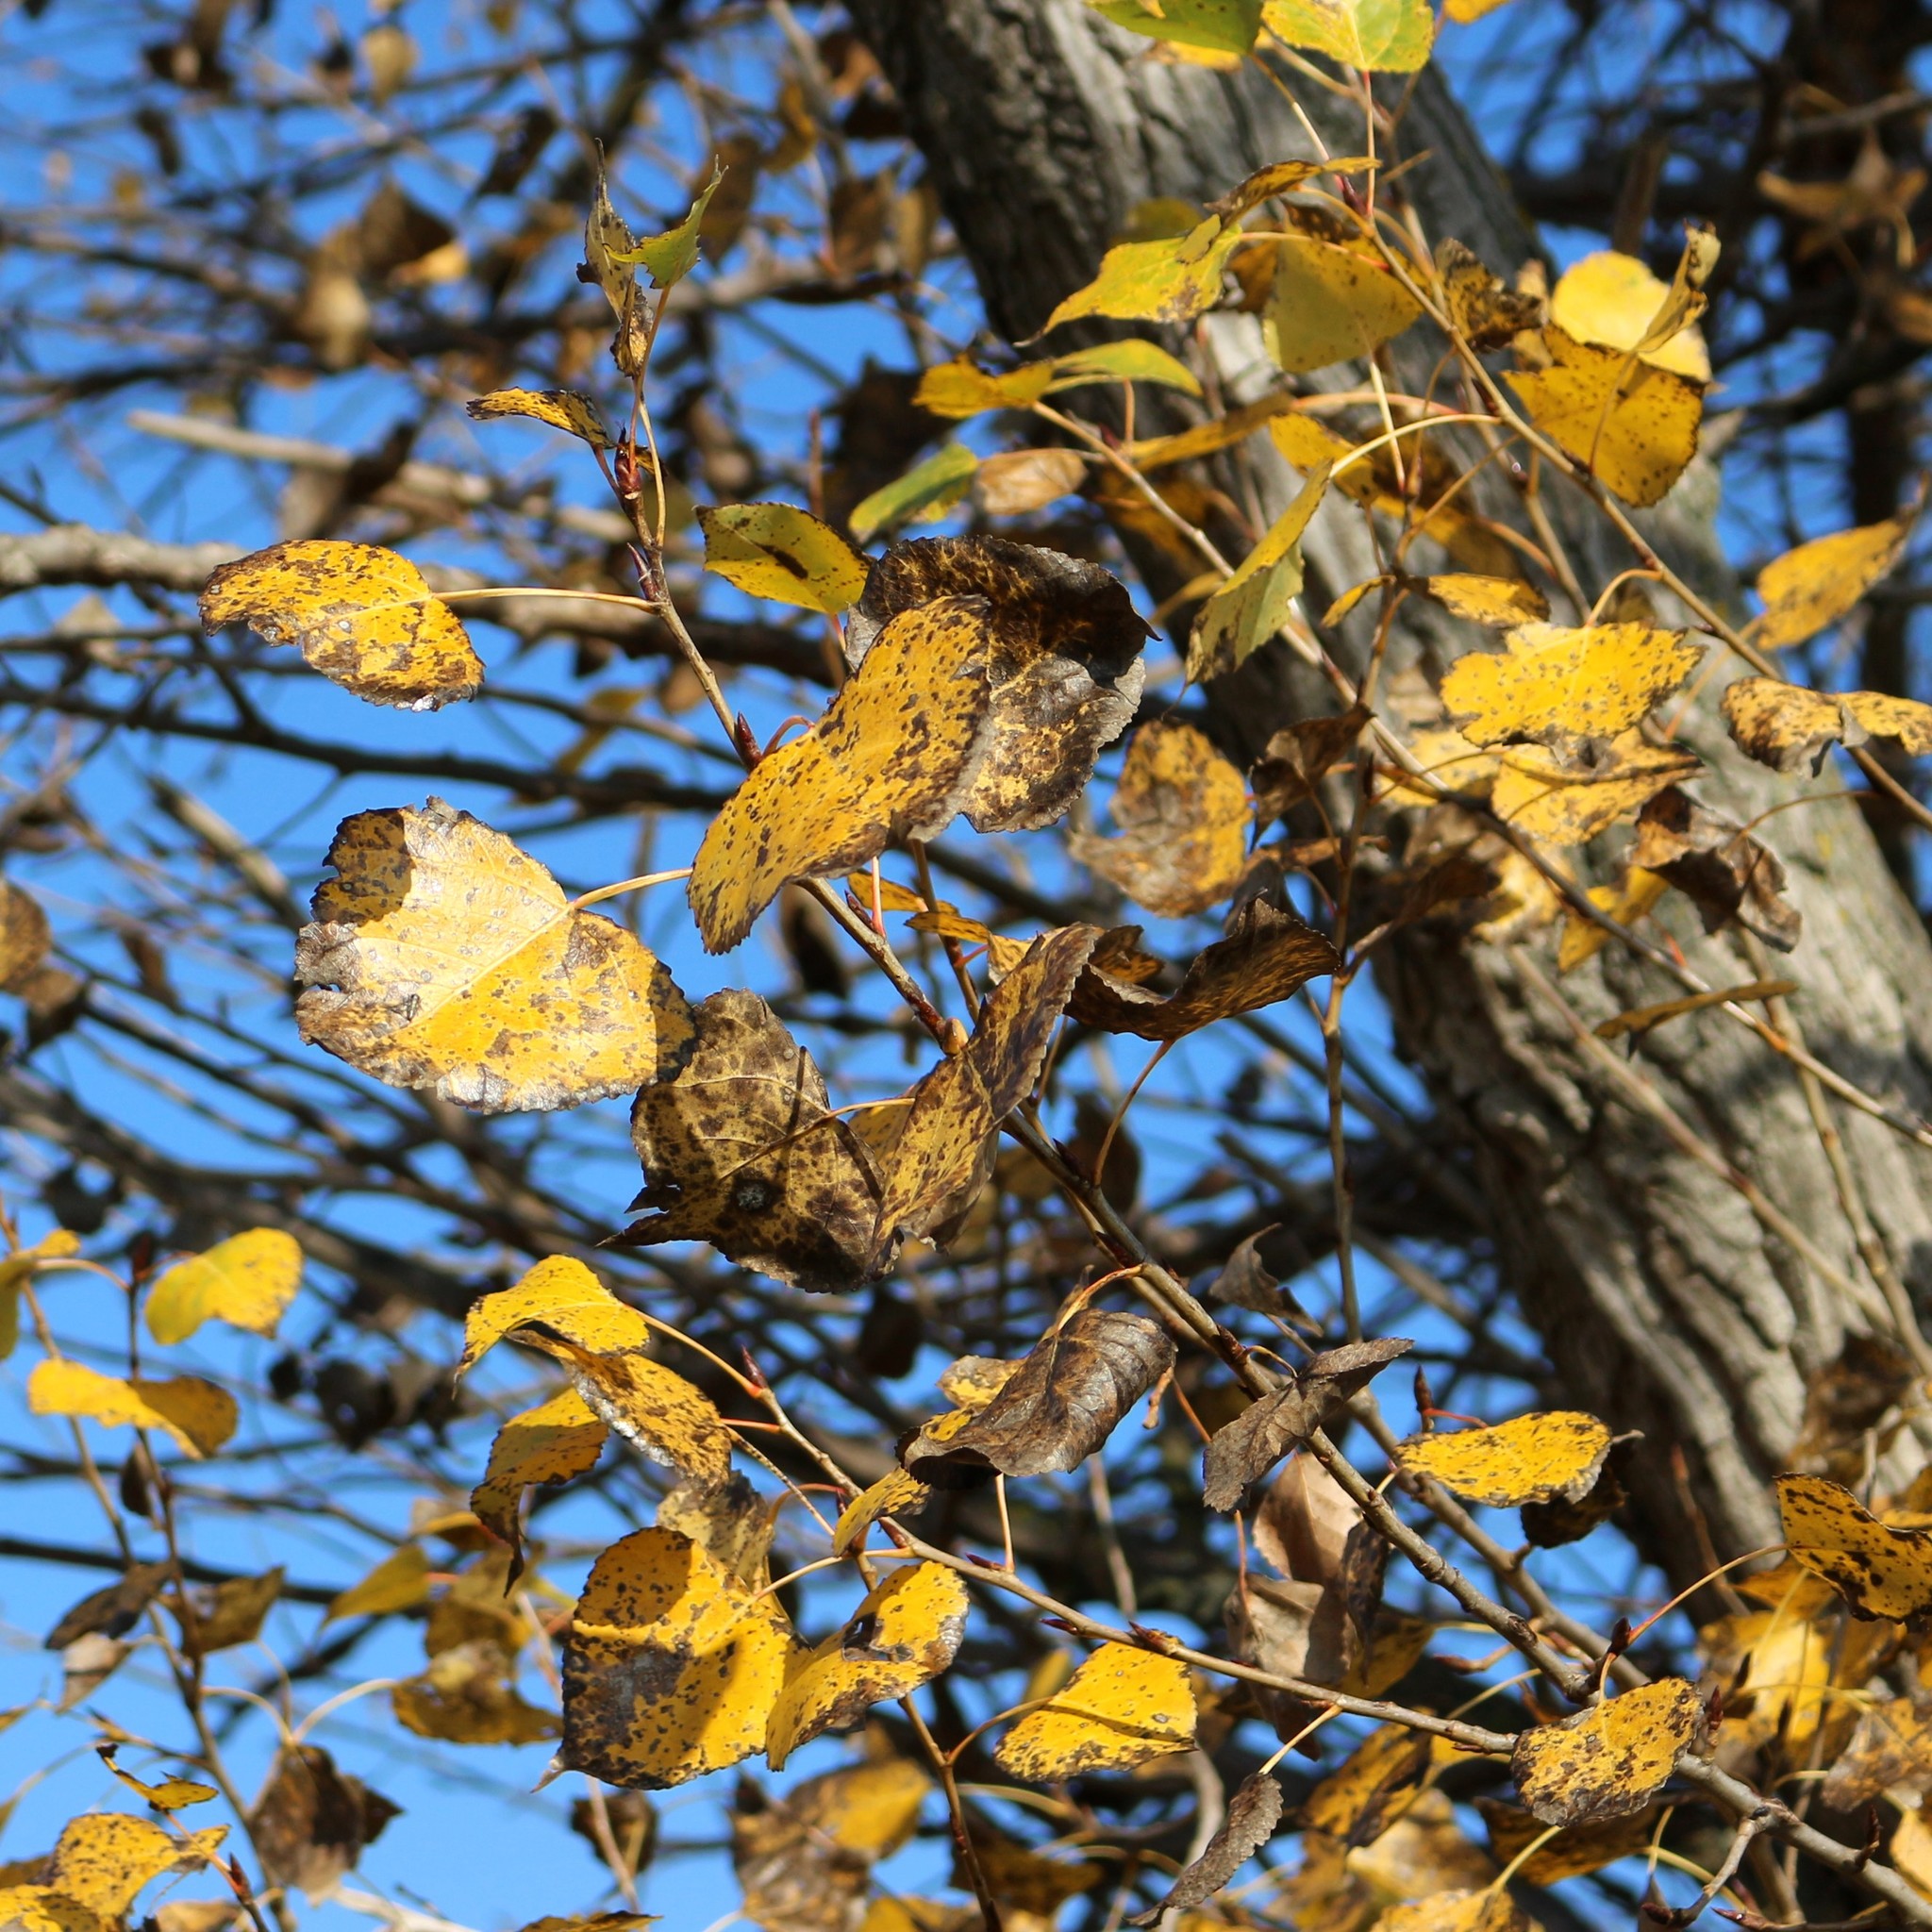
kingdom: Plantae
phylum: Tracheophyta
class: Magnoliopsida
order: Malpighiales
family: Salicaceae
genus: Populus
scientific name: Populus nigra
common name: Black poplar
